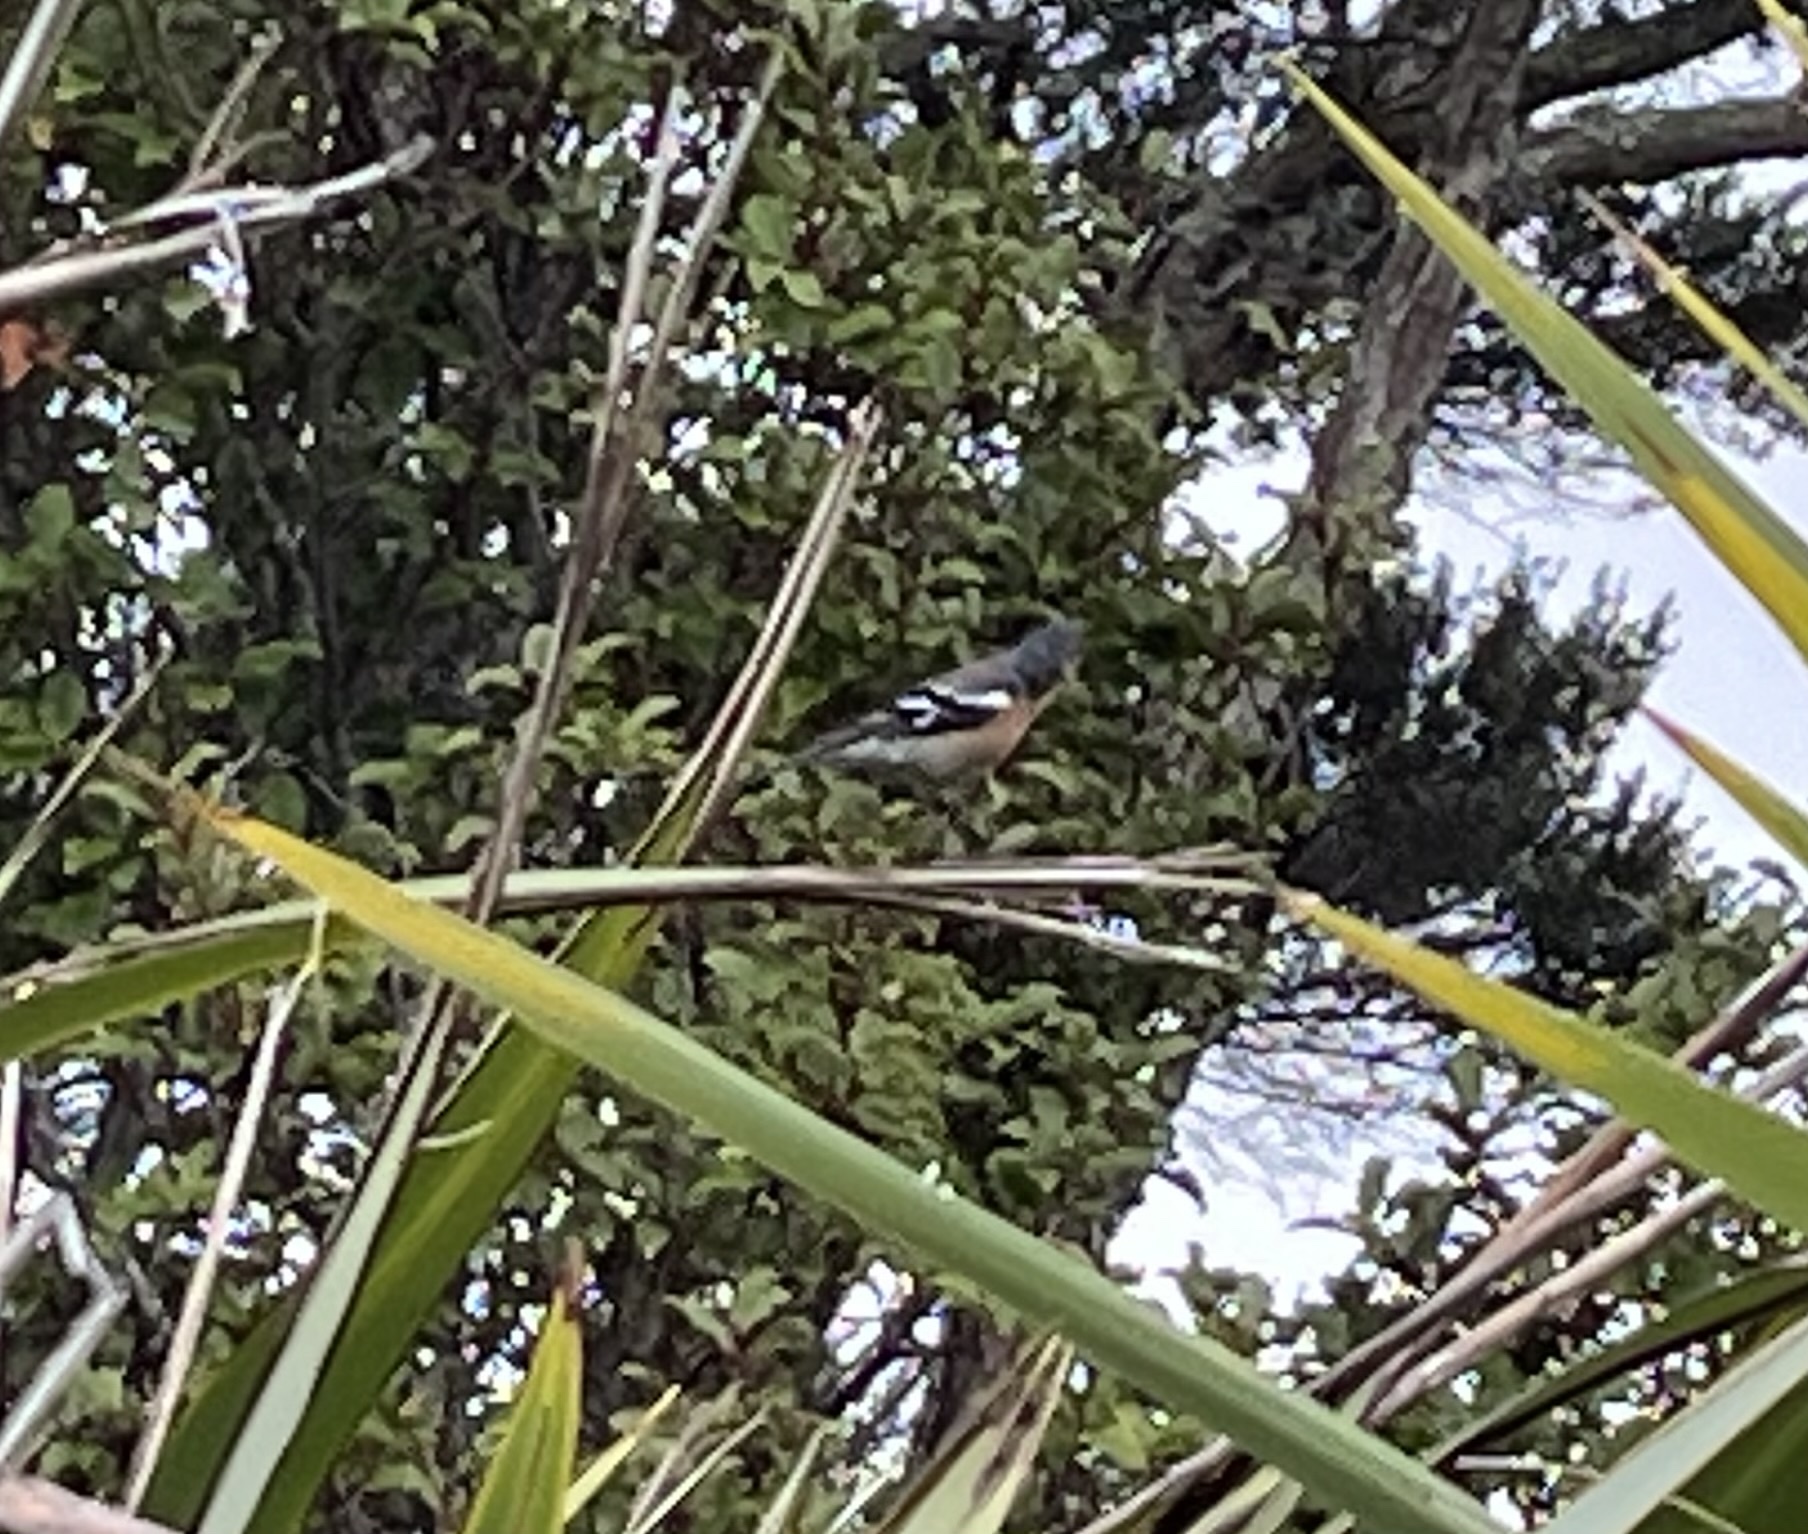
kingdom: Animalia
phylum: Chordata
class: Aves
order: Passeriformes
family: Fringillidae
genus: Fringilla
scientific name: Fringilla coelebs
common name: Common chaffinch
